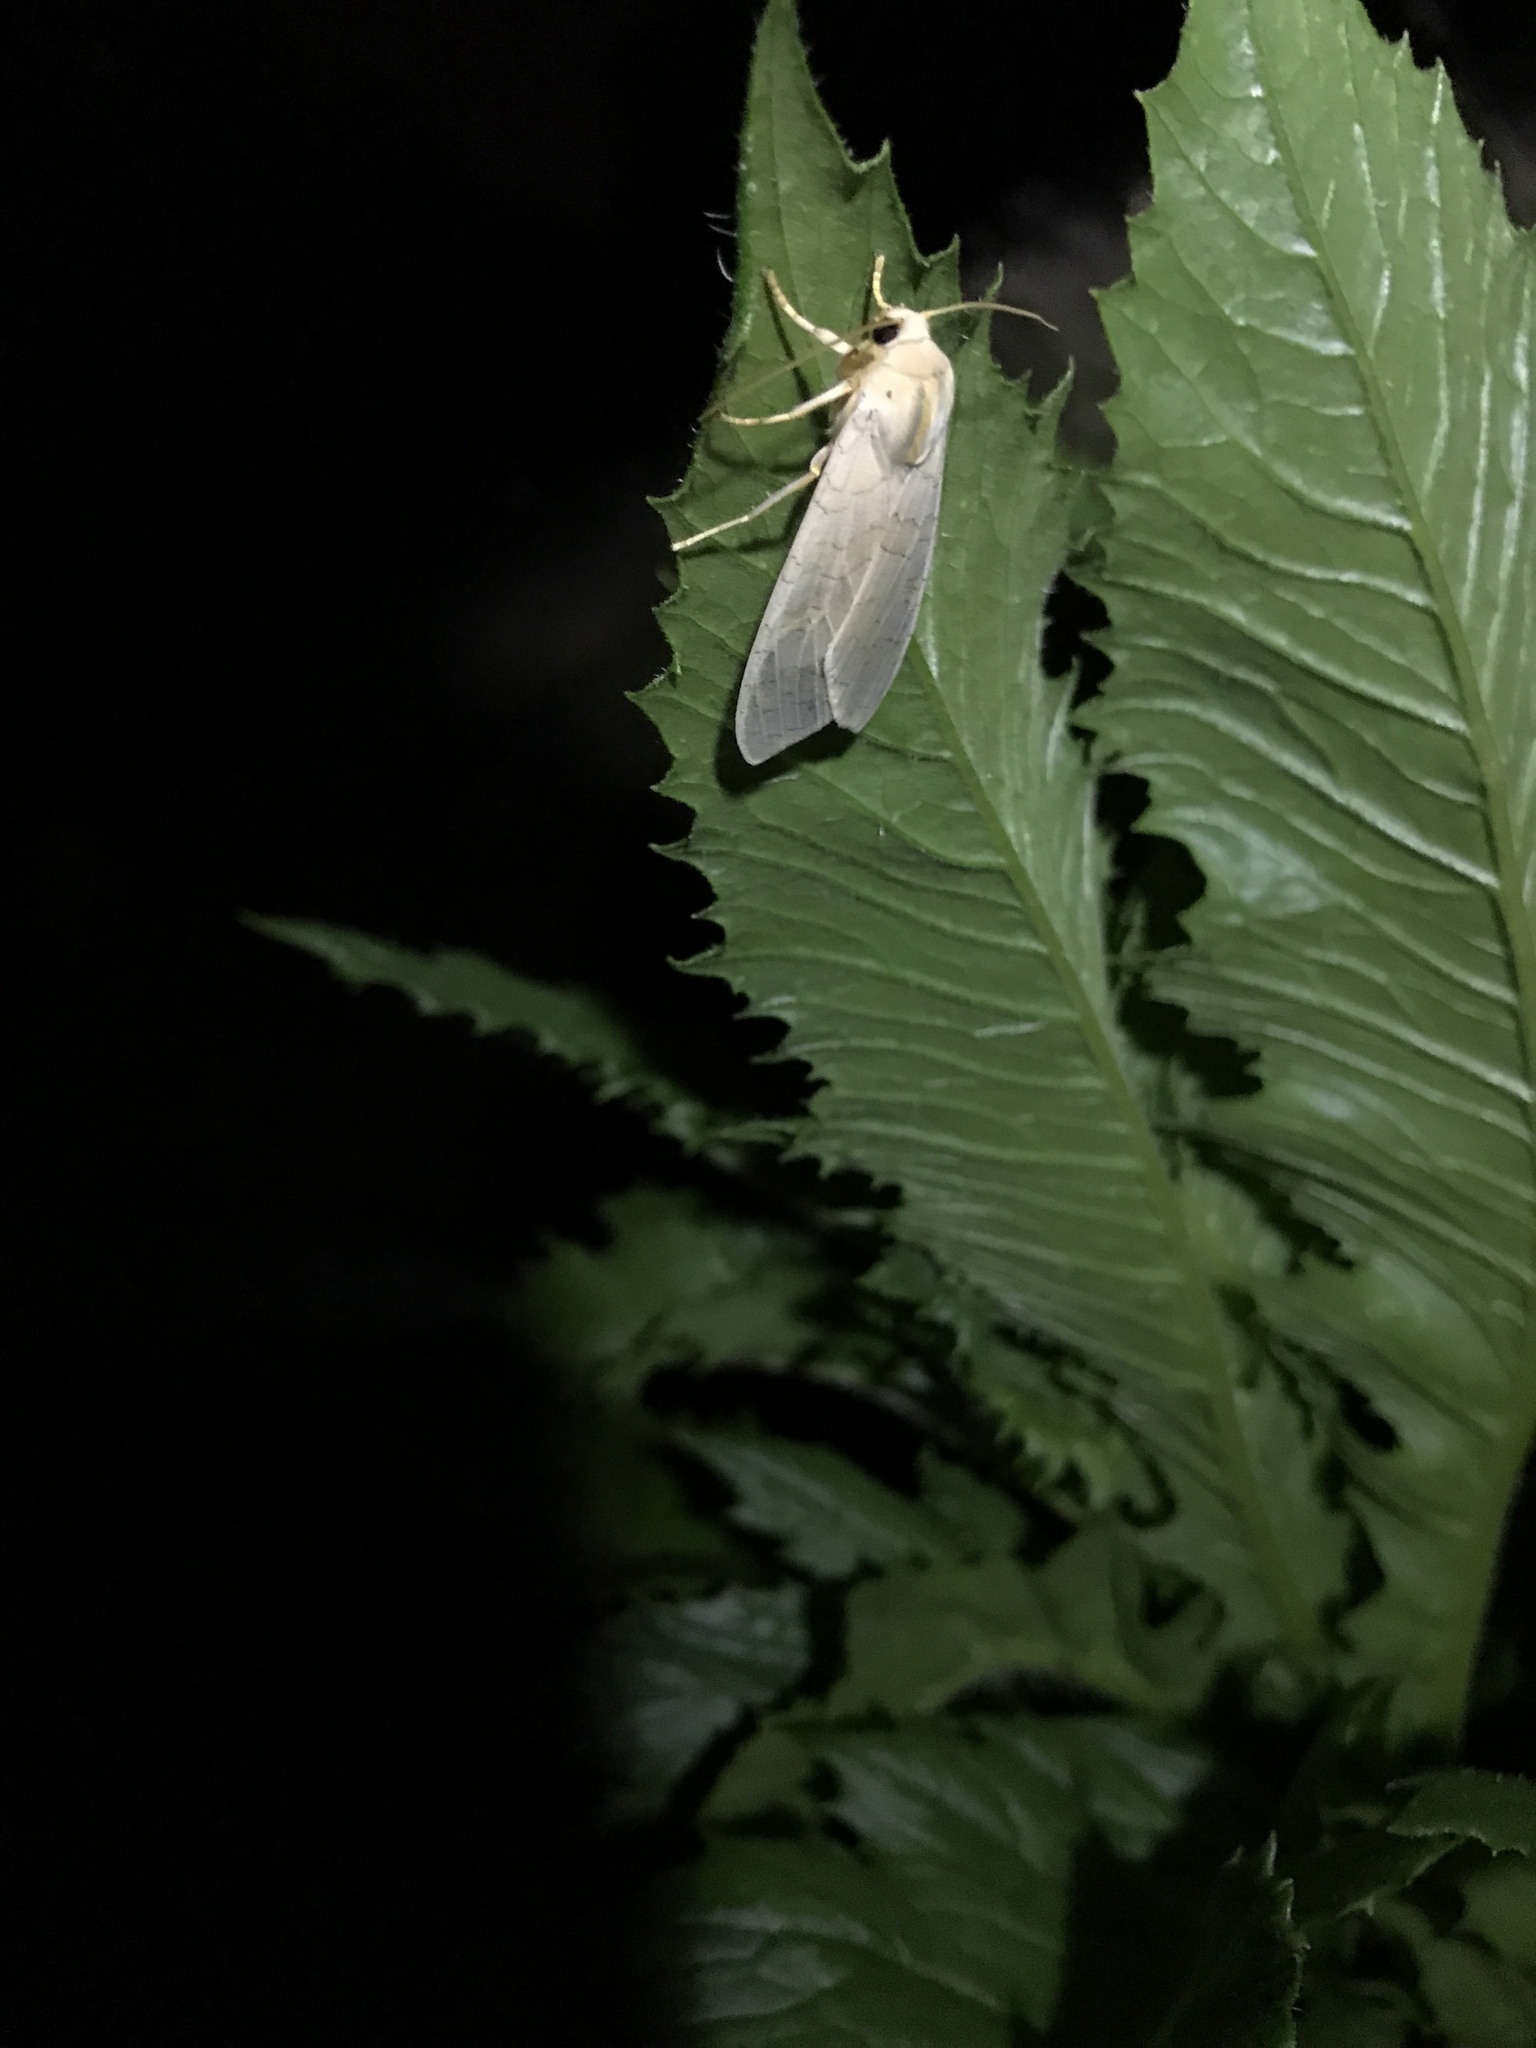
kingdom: Animalia
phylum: Arthropoda
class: Insecta
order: Lepidoptera
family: Erebidae
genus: Halysidota
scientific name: Halysidota
